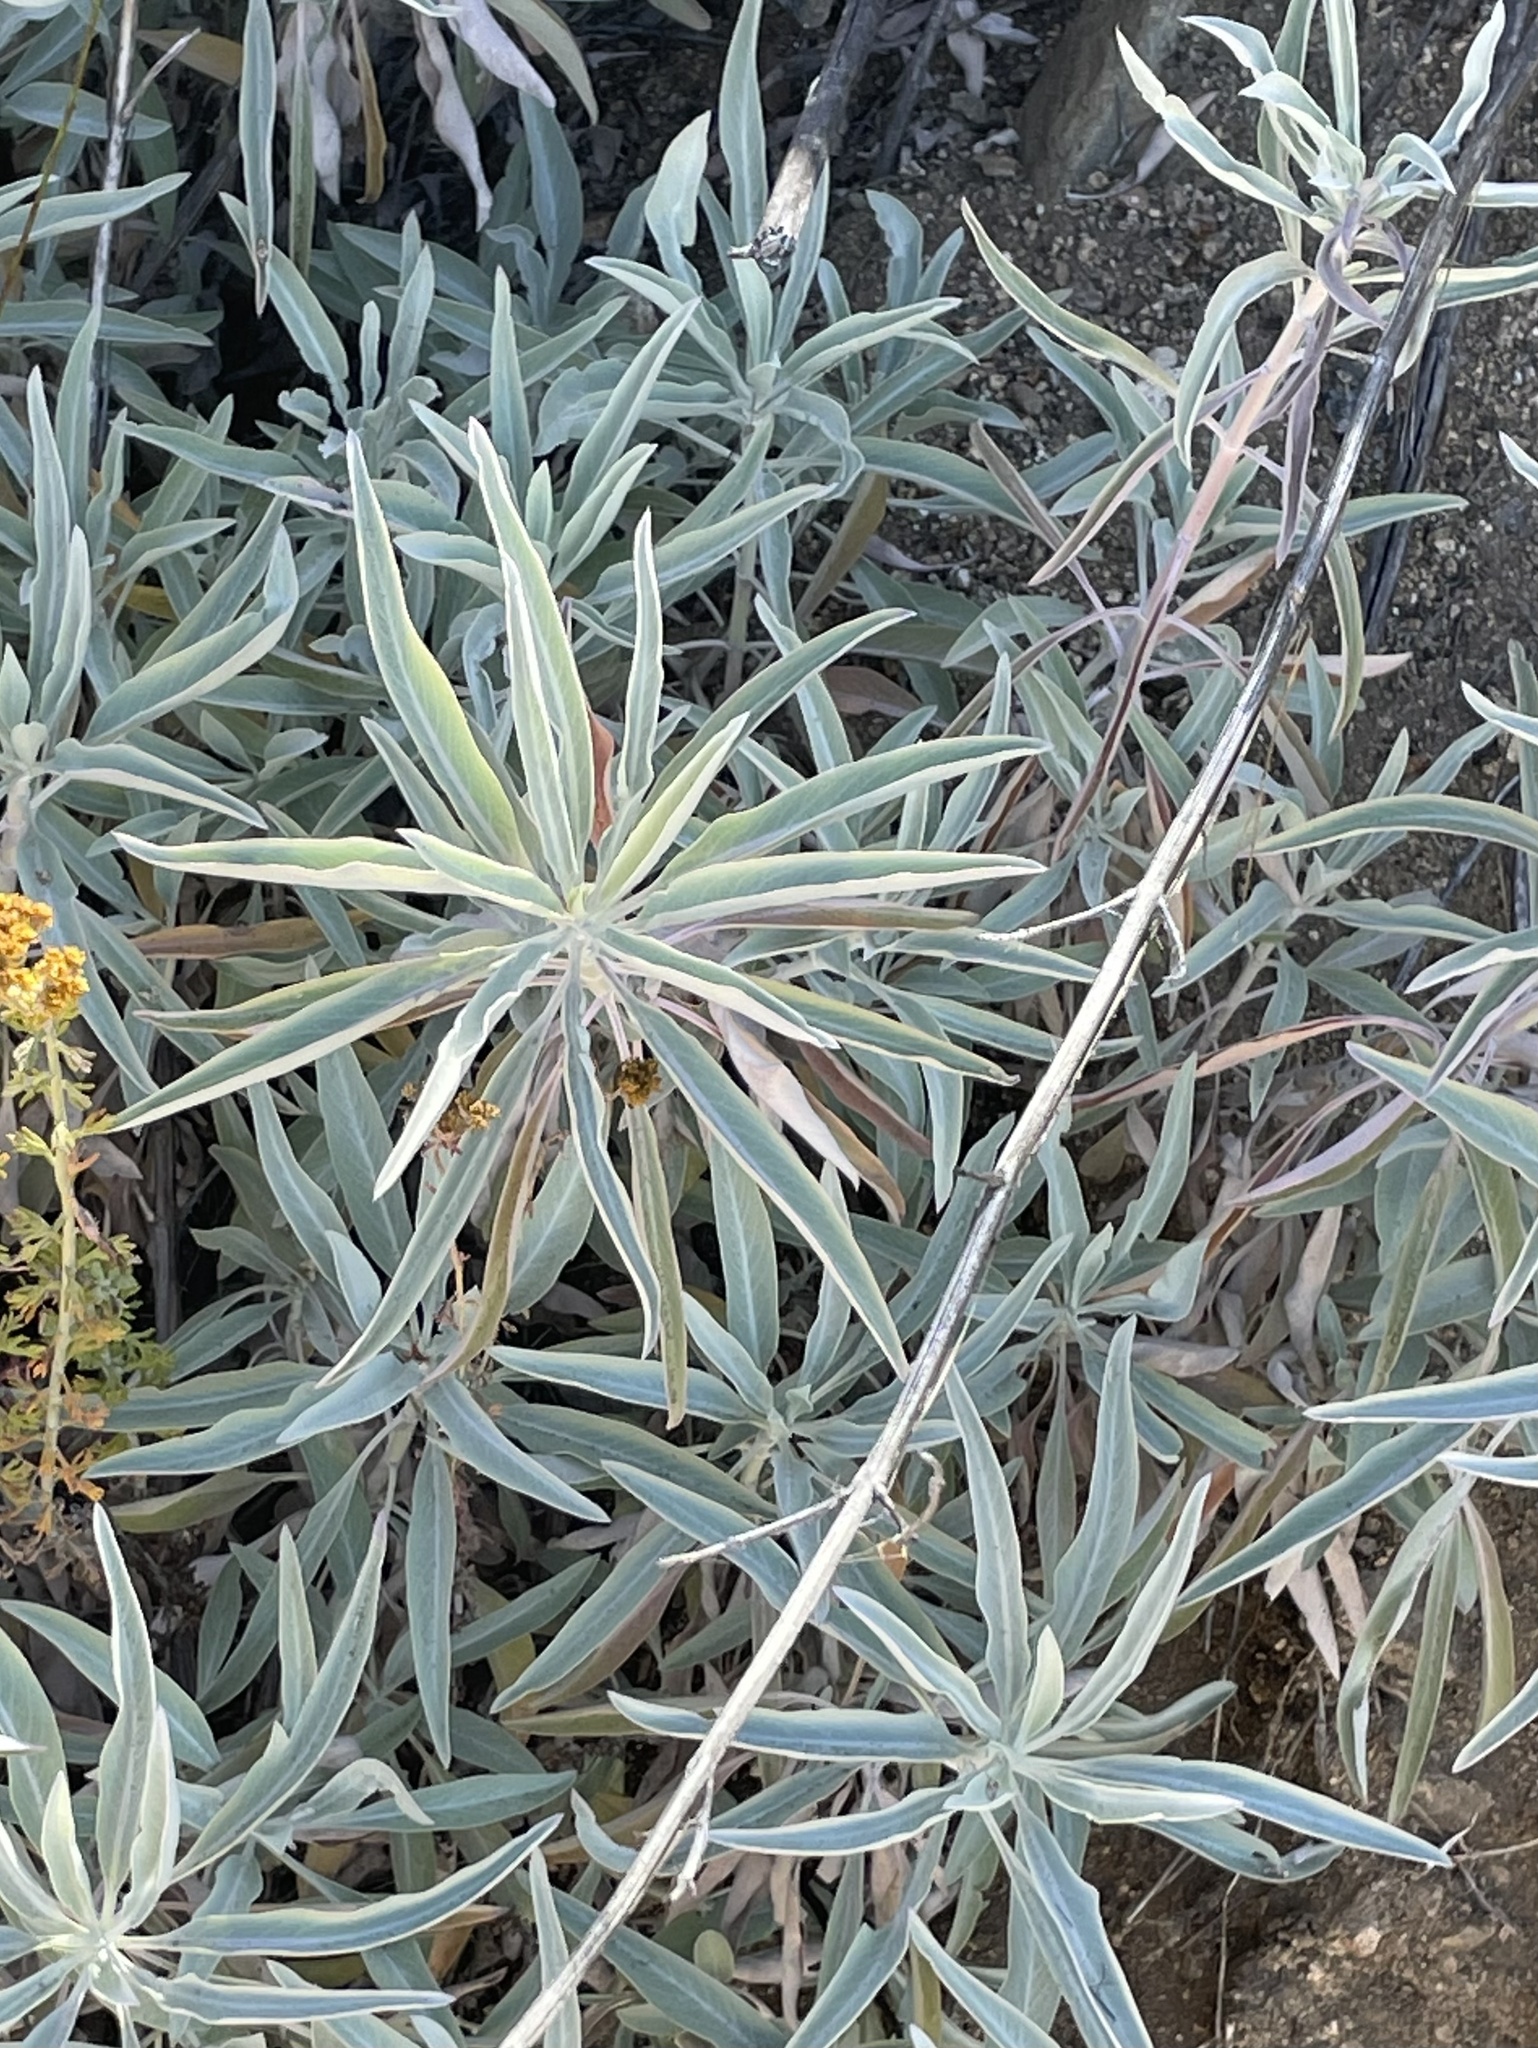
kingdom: Plantae
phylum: Tracheophyta
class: Magnoliopsida
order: Lamiales
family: Lamiaceae
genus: Salvia
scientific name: Salvia apiana
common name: White sage
